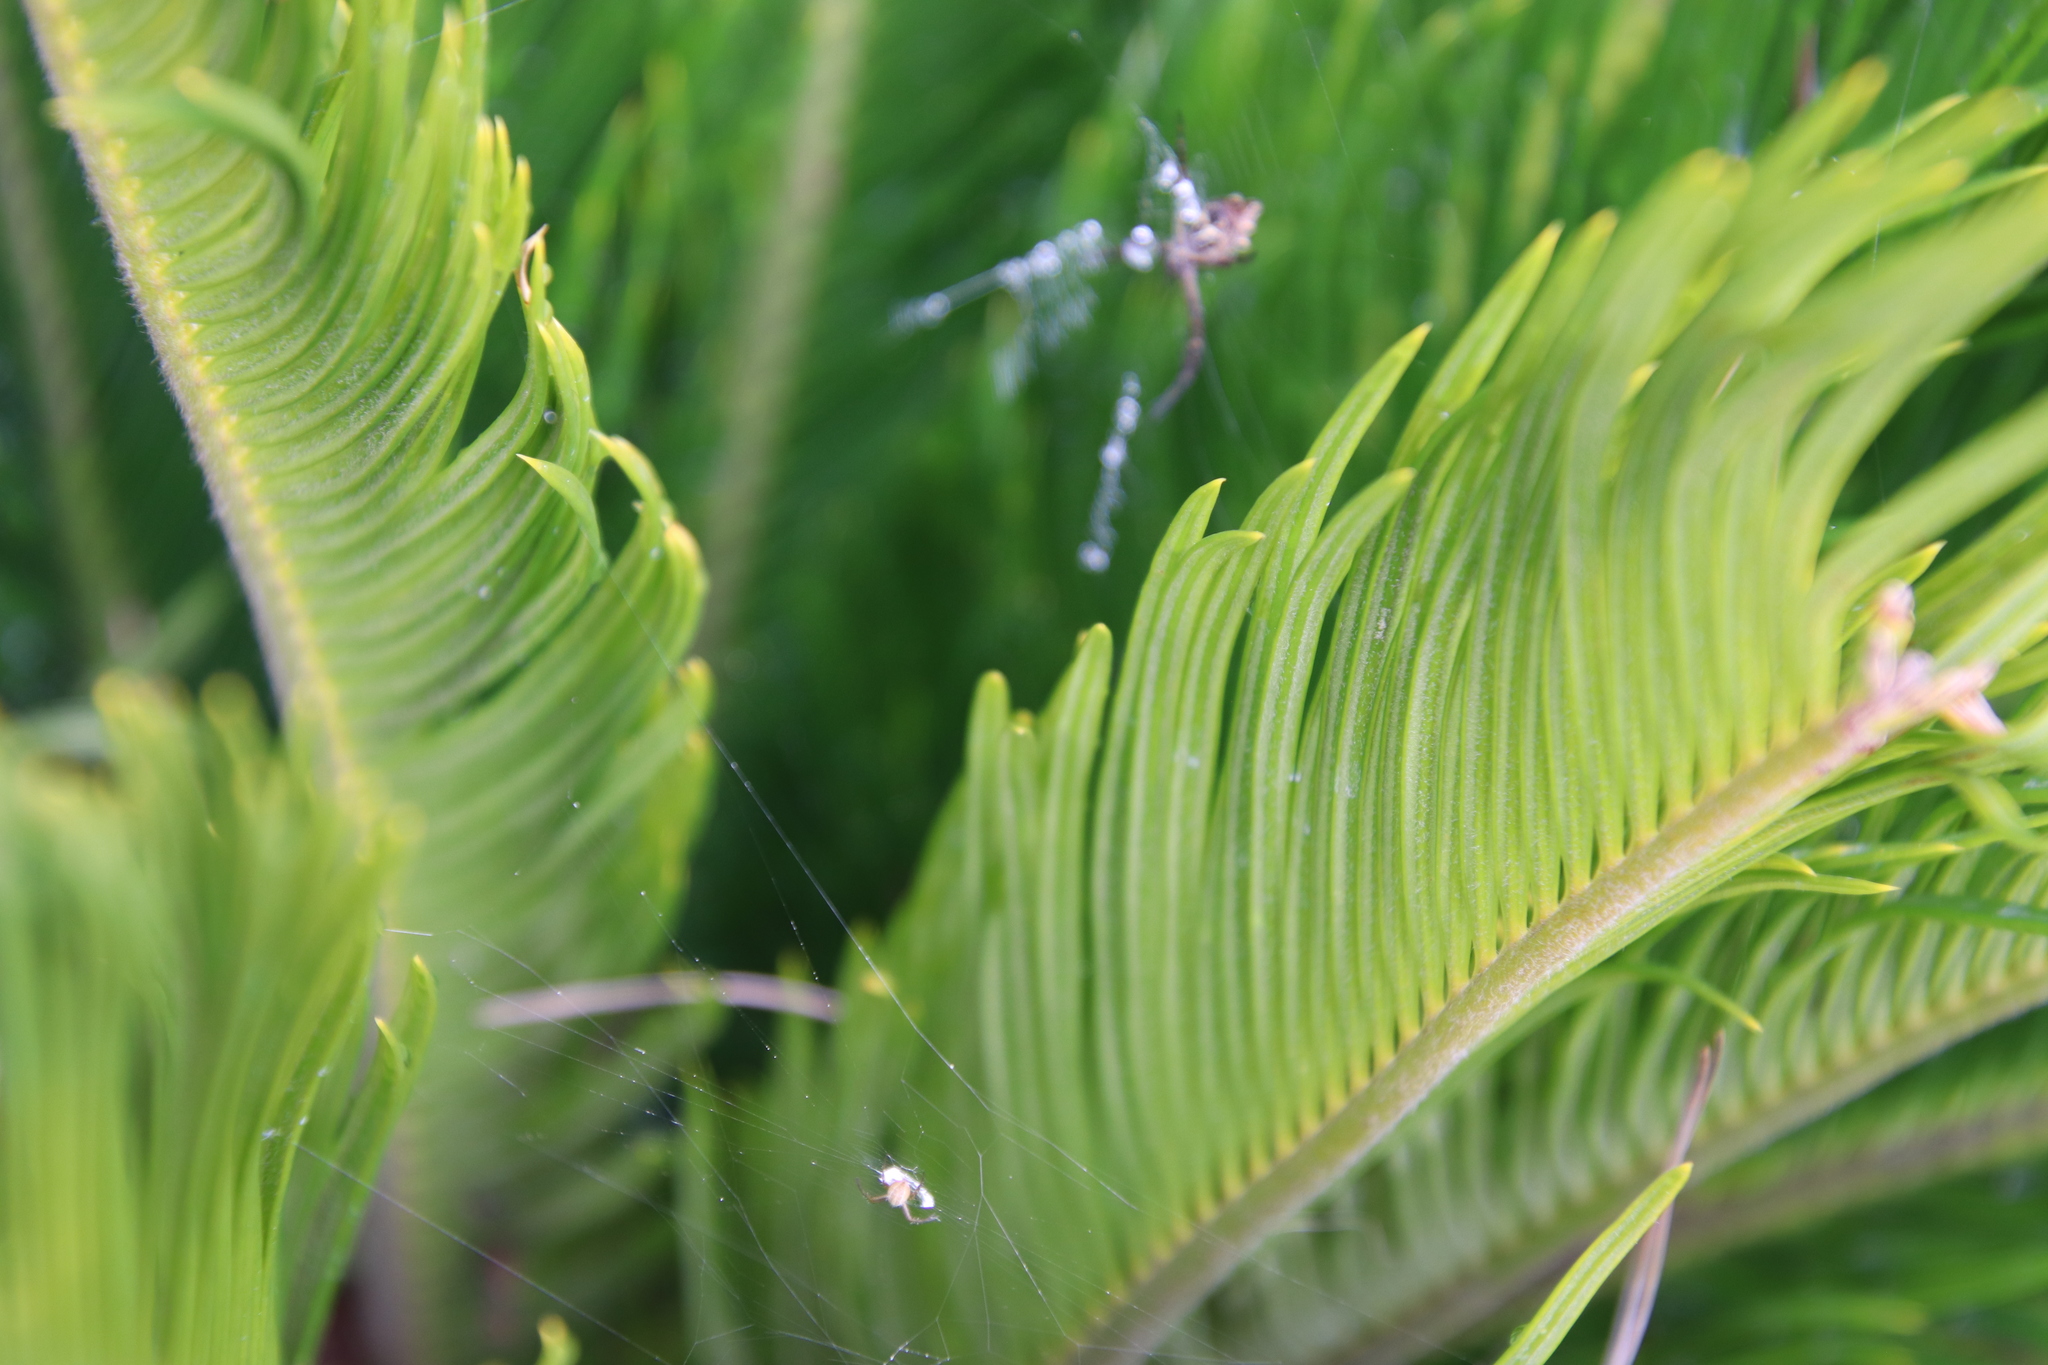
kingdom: Animalia
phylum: Arthropoda
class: Arachnida
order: Araneae
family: Araneidae
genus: Argiope
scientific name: Argiope argentata
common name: Orb weavers
